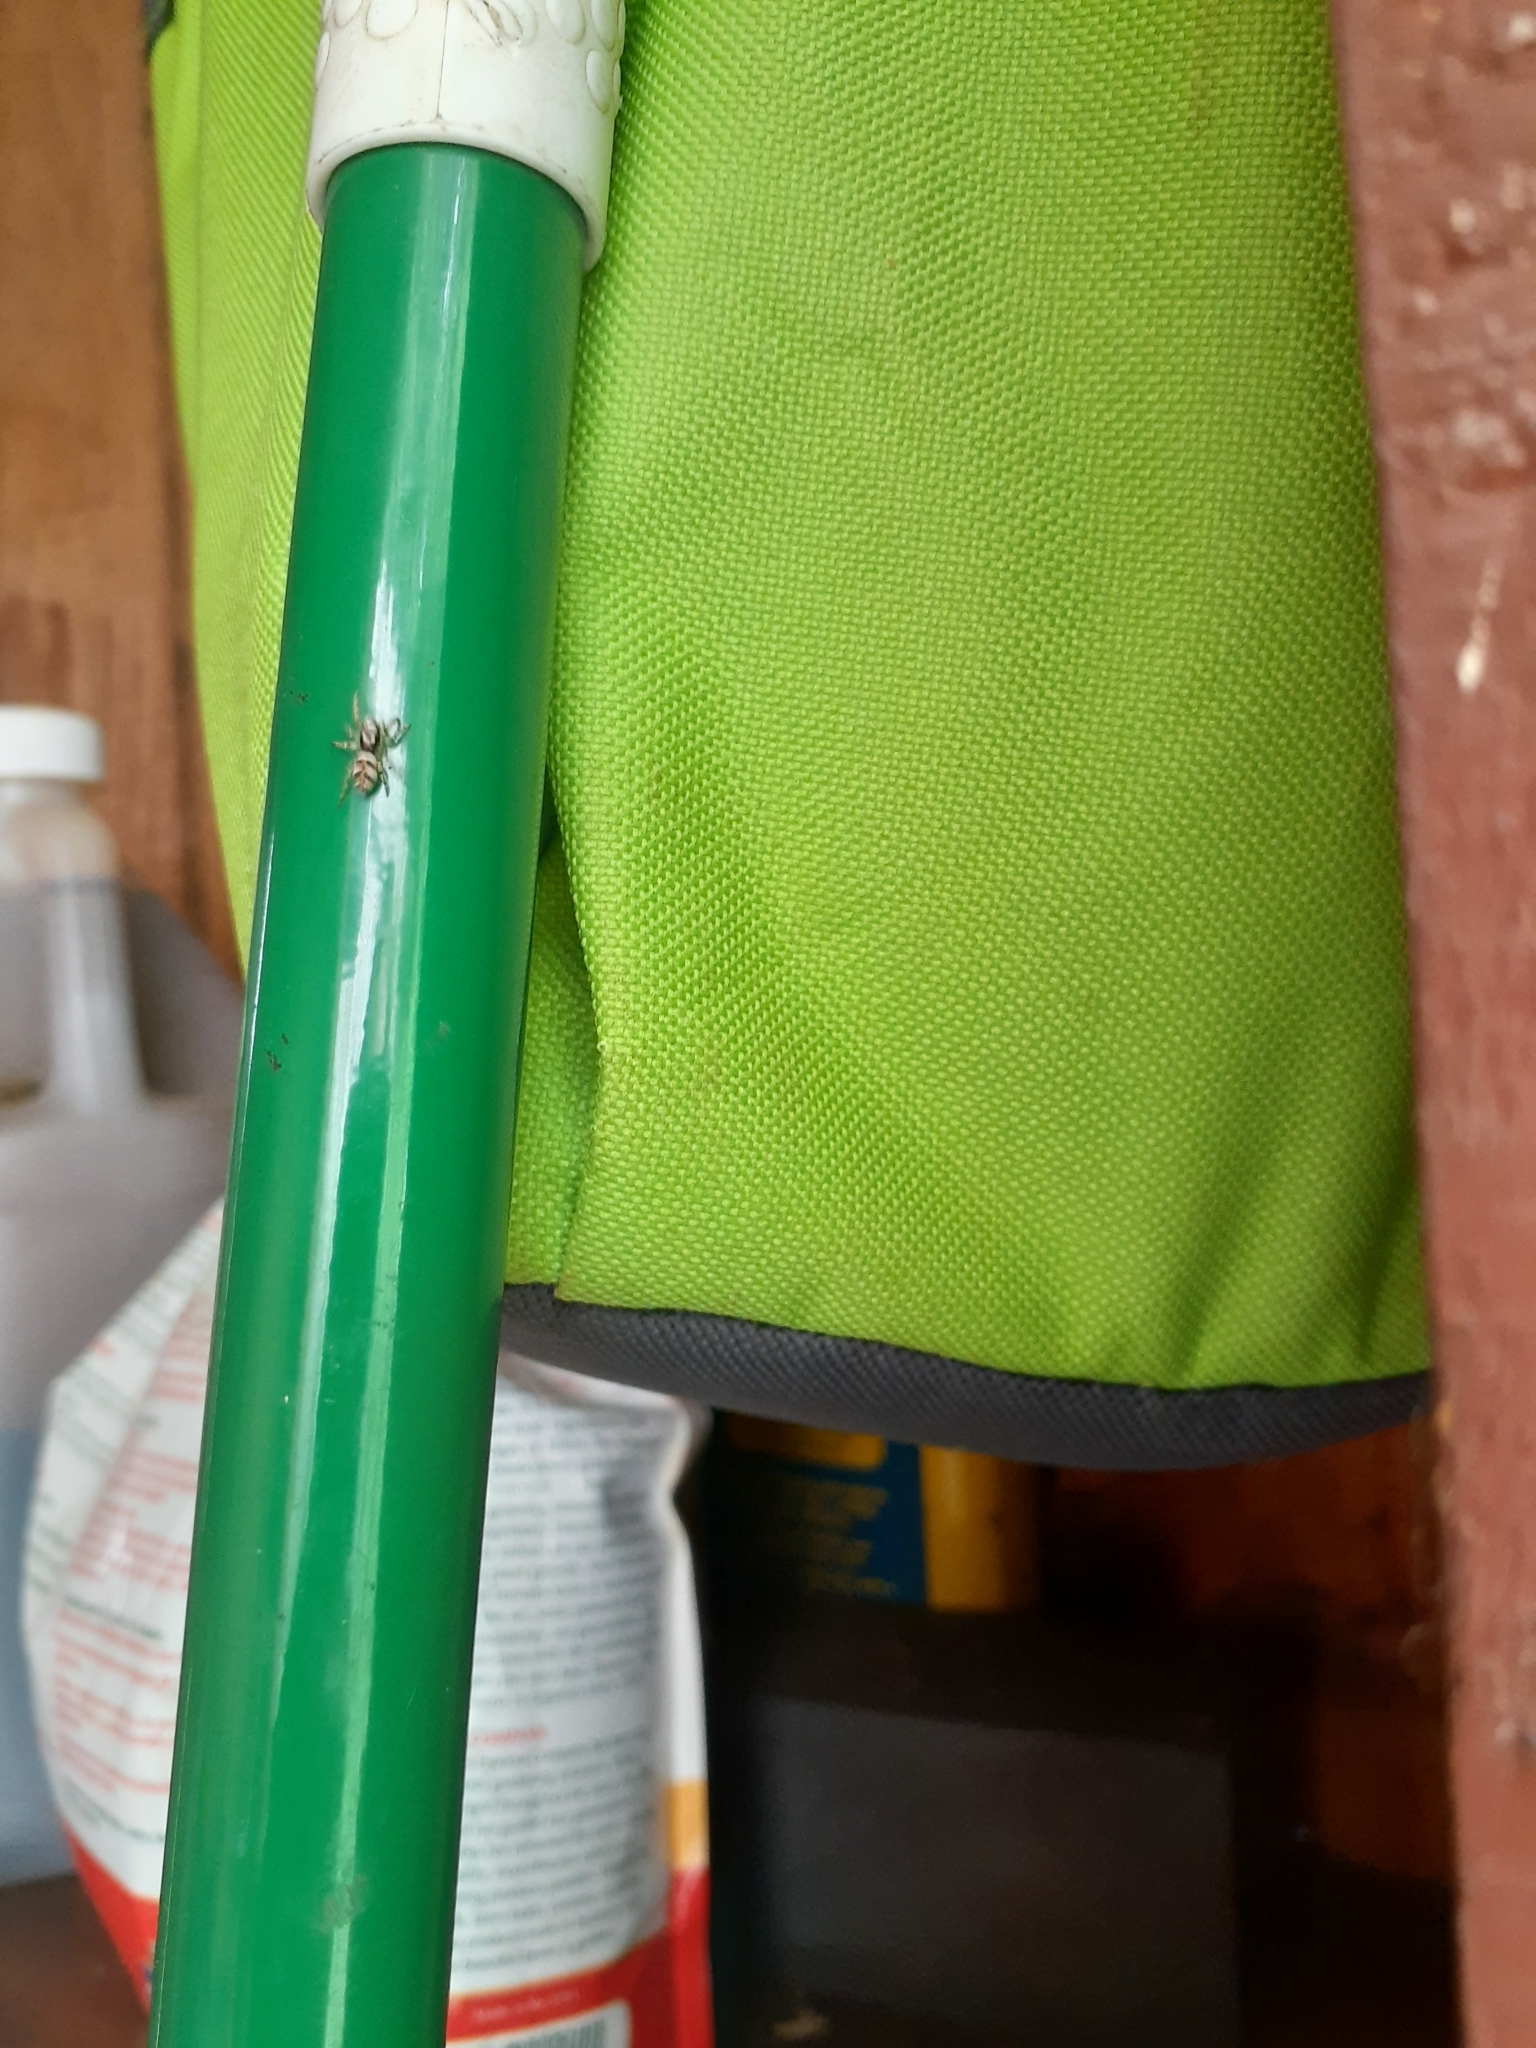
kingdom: Animalia
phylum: Arthropoda
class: Arachnida
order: Araneae
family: Salticidae
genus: Salticus
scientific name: Salticus scenicus
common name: Zebra jumper
